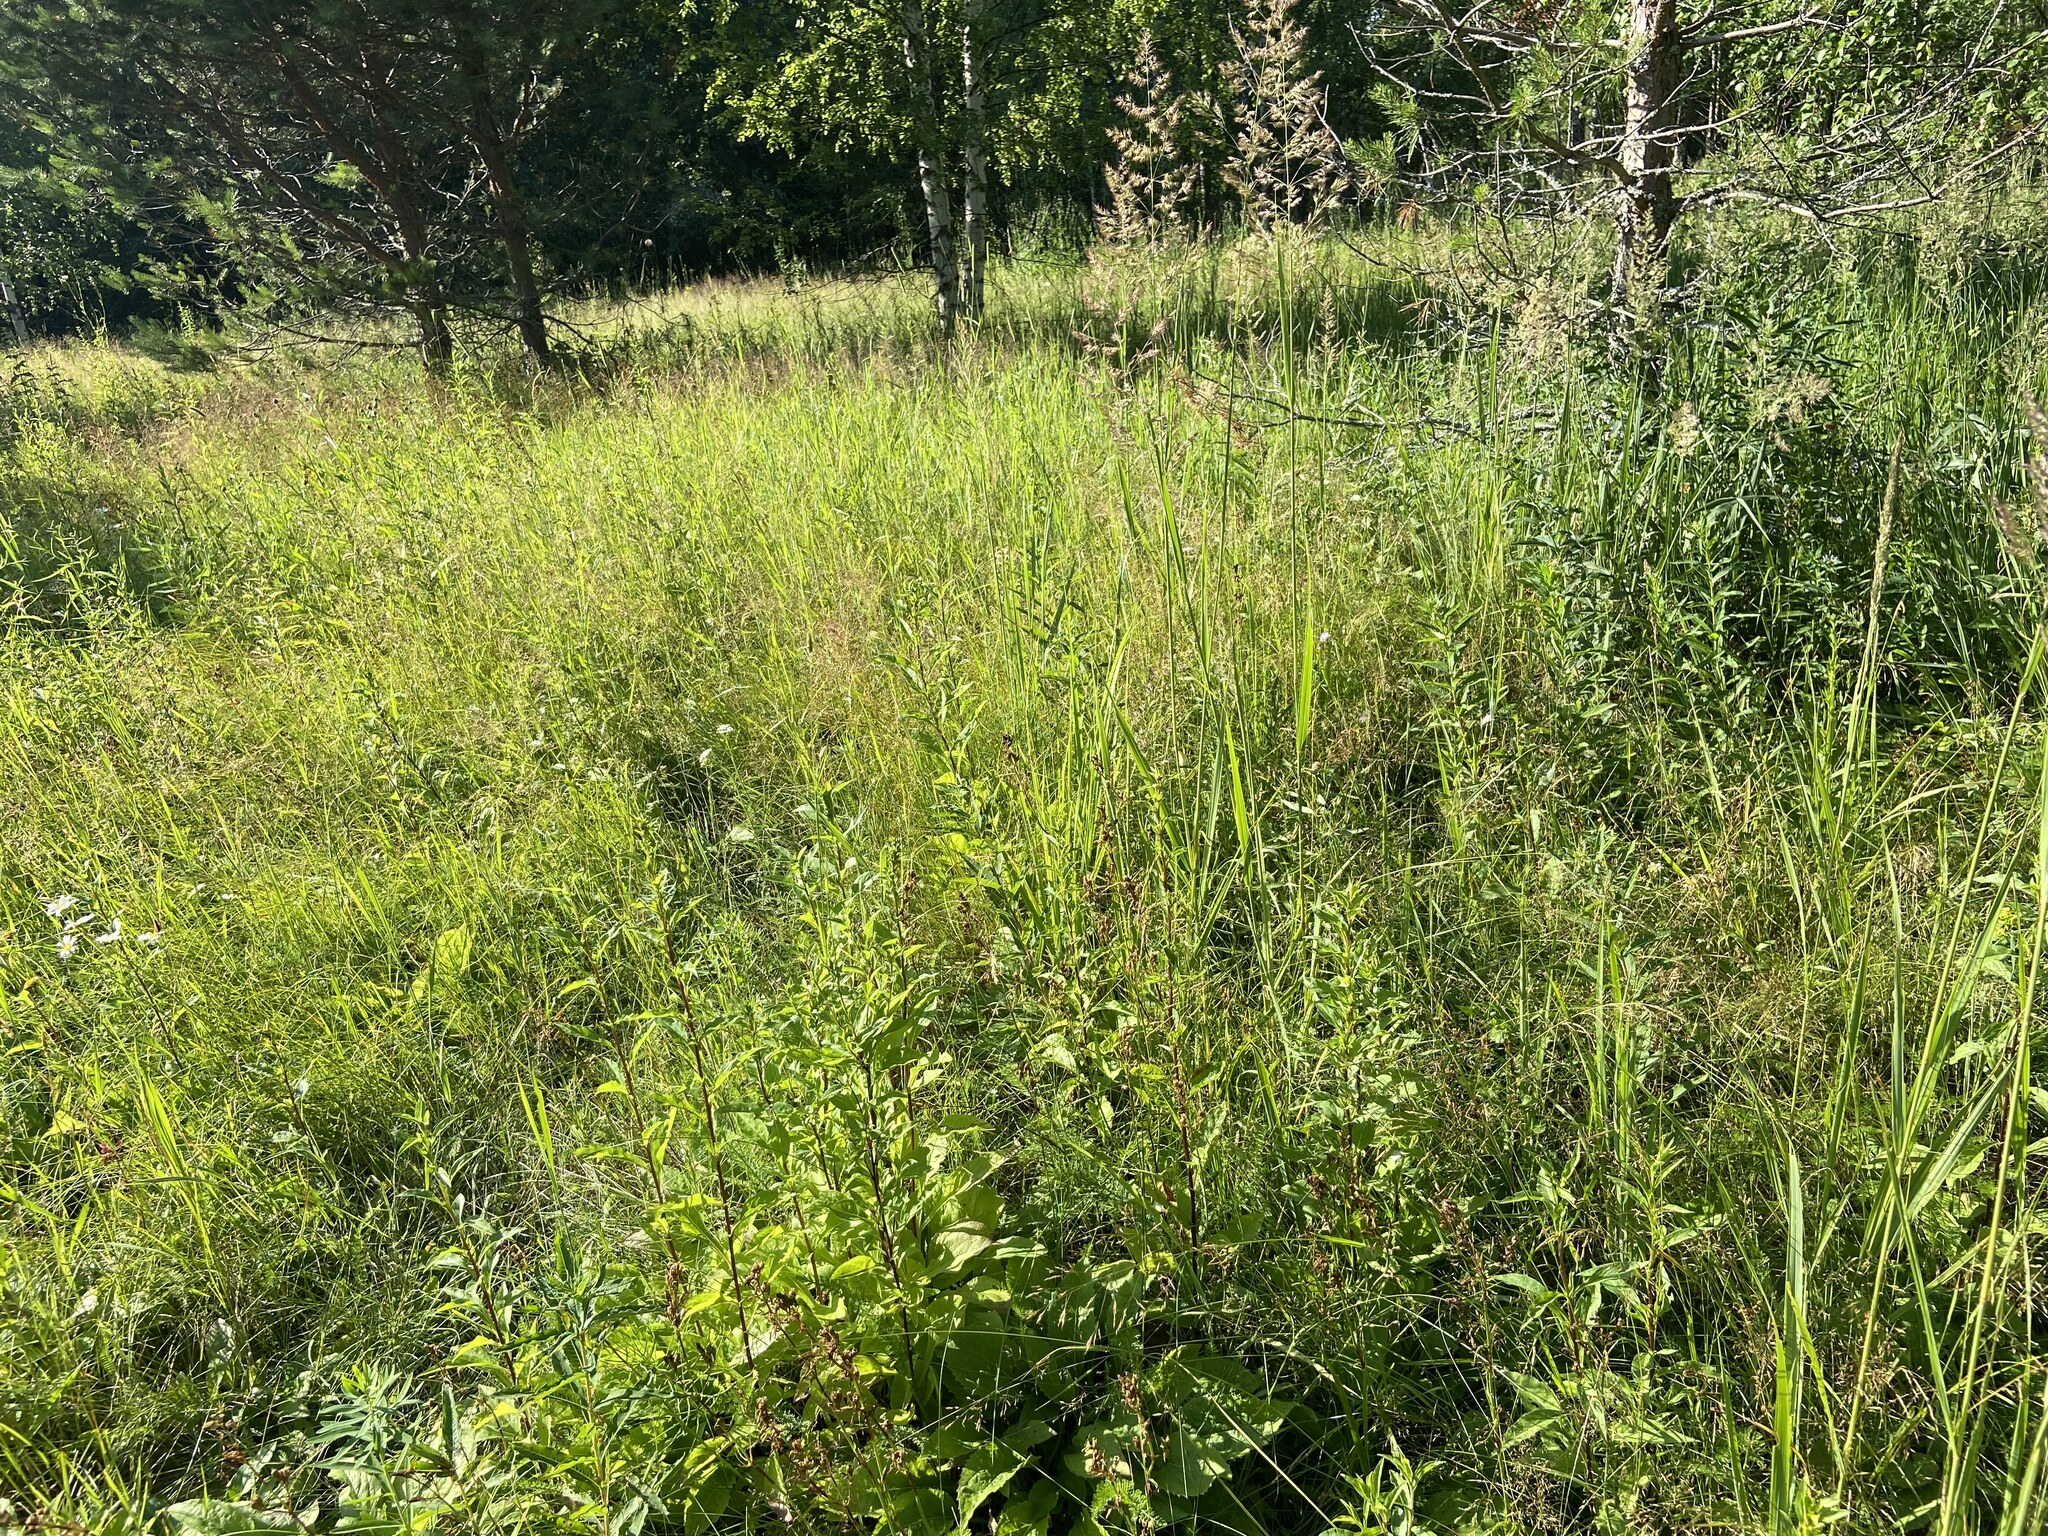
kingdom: Plantae
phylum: Tracheophyta
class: Liliopsida
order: Poales
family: Poaceae
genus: Calamagrostis
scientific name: Calamagrostis epigejos
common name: Wood small-reed
